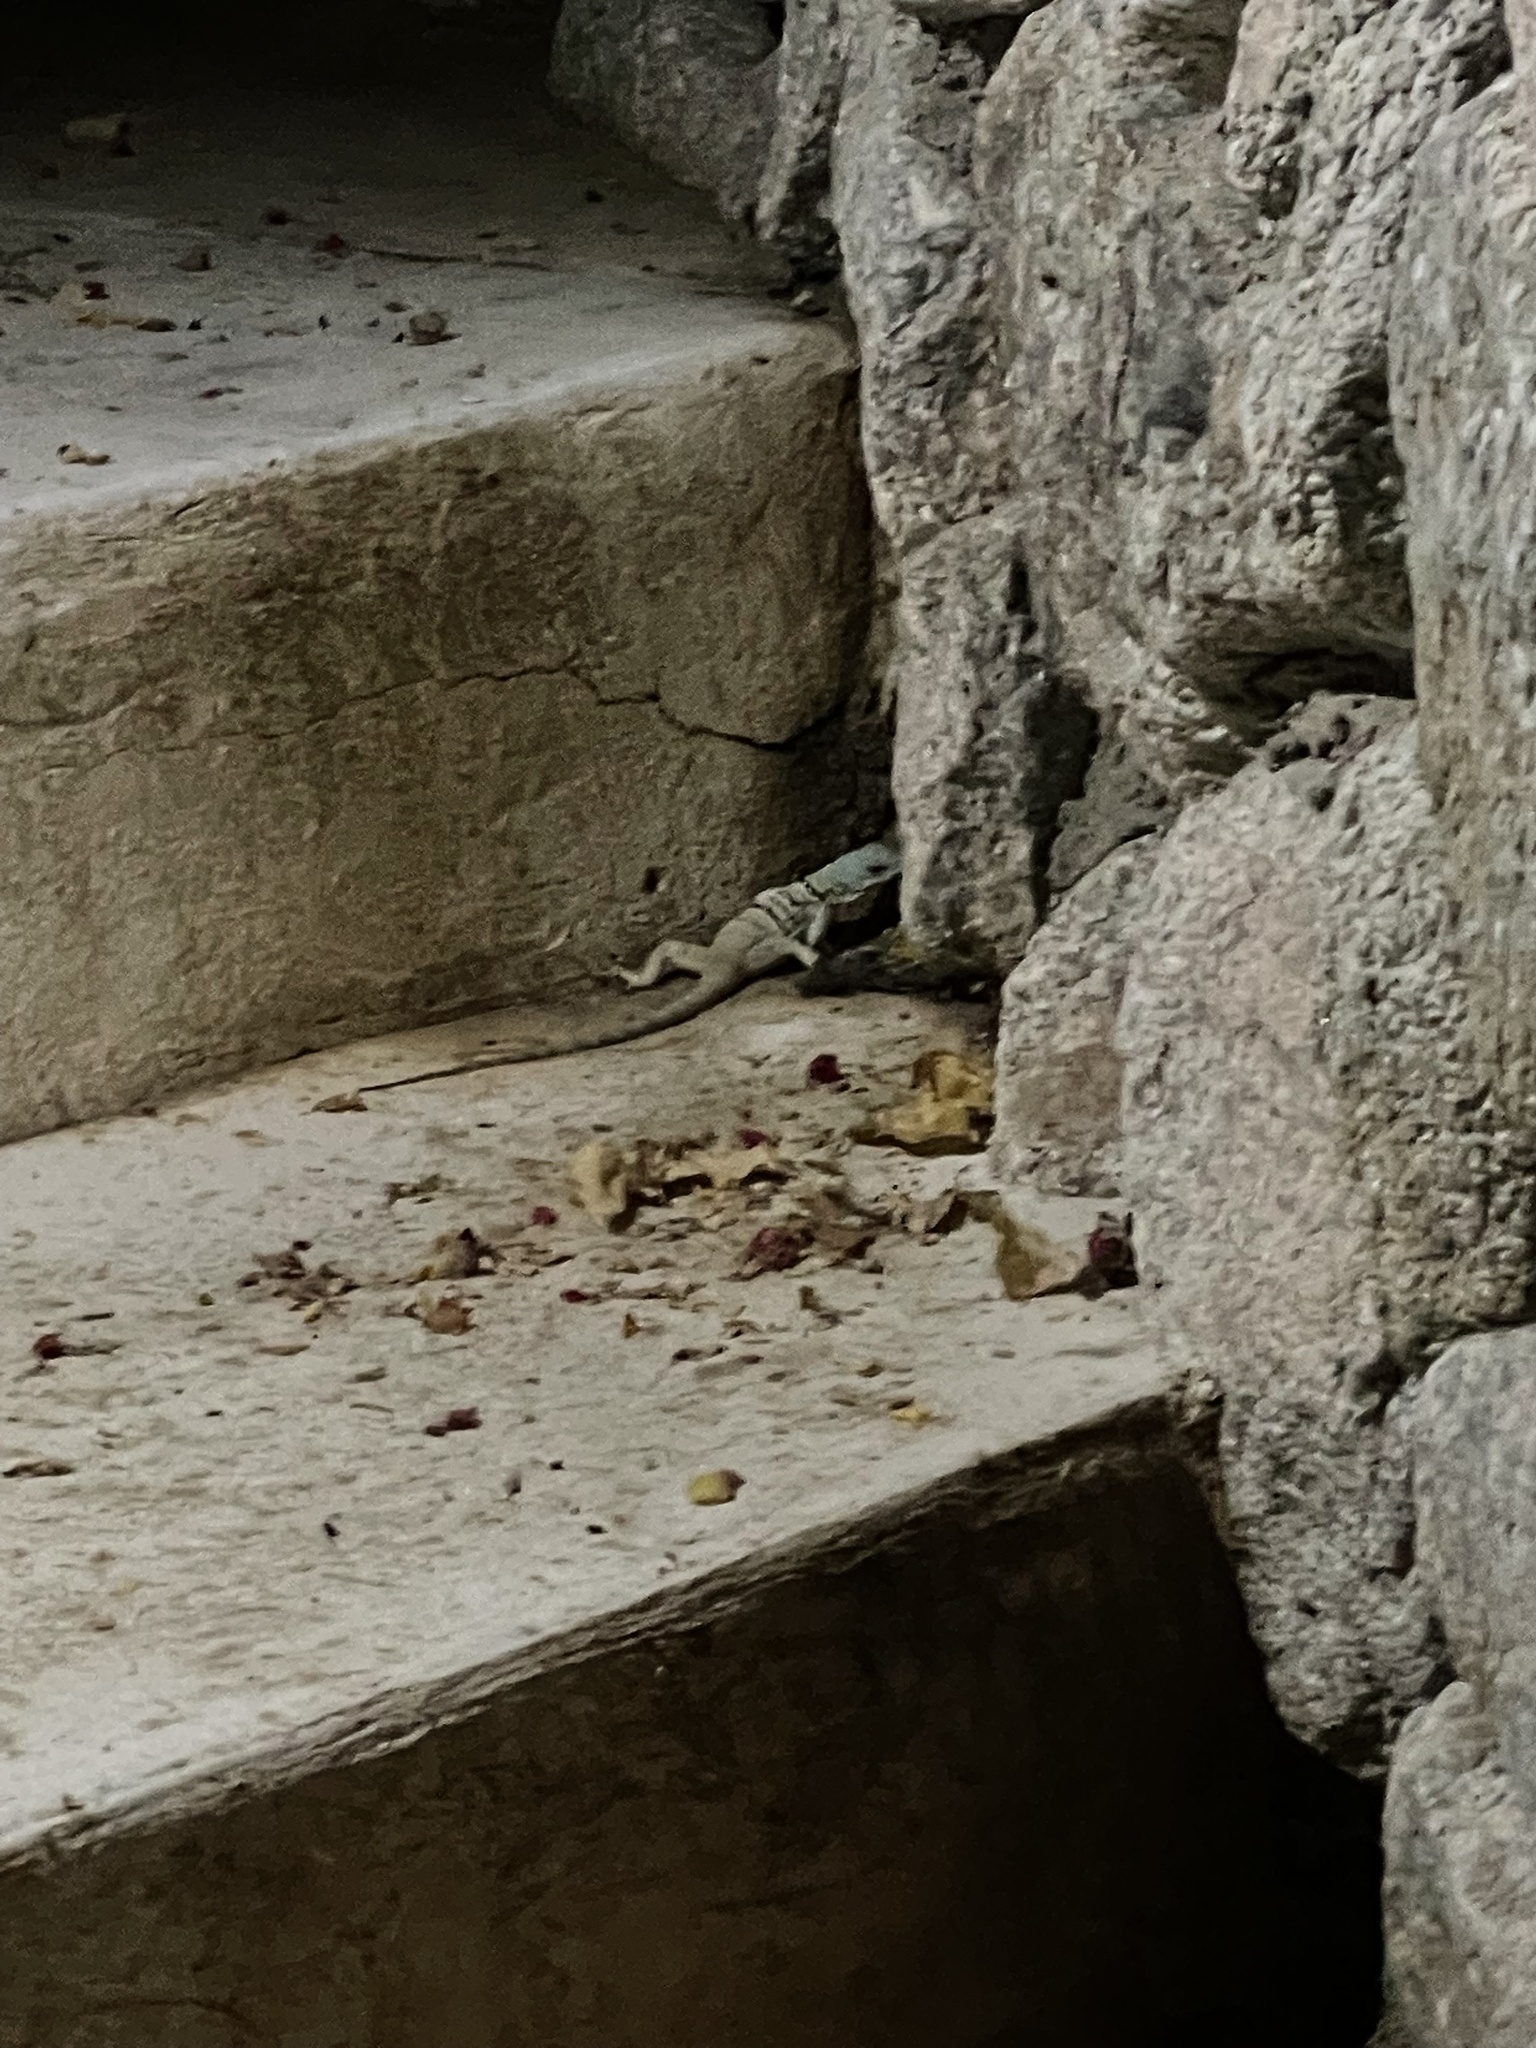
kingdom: Animalia
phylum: Chordata
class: Squamata
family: Phrynosomatidae
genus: Petrosaurus
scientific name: Petrosaurus thalassinus
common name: Baja california rock lizard
